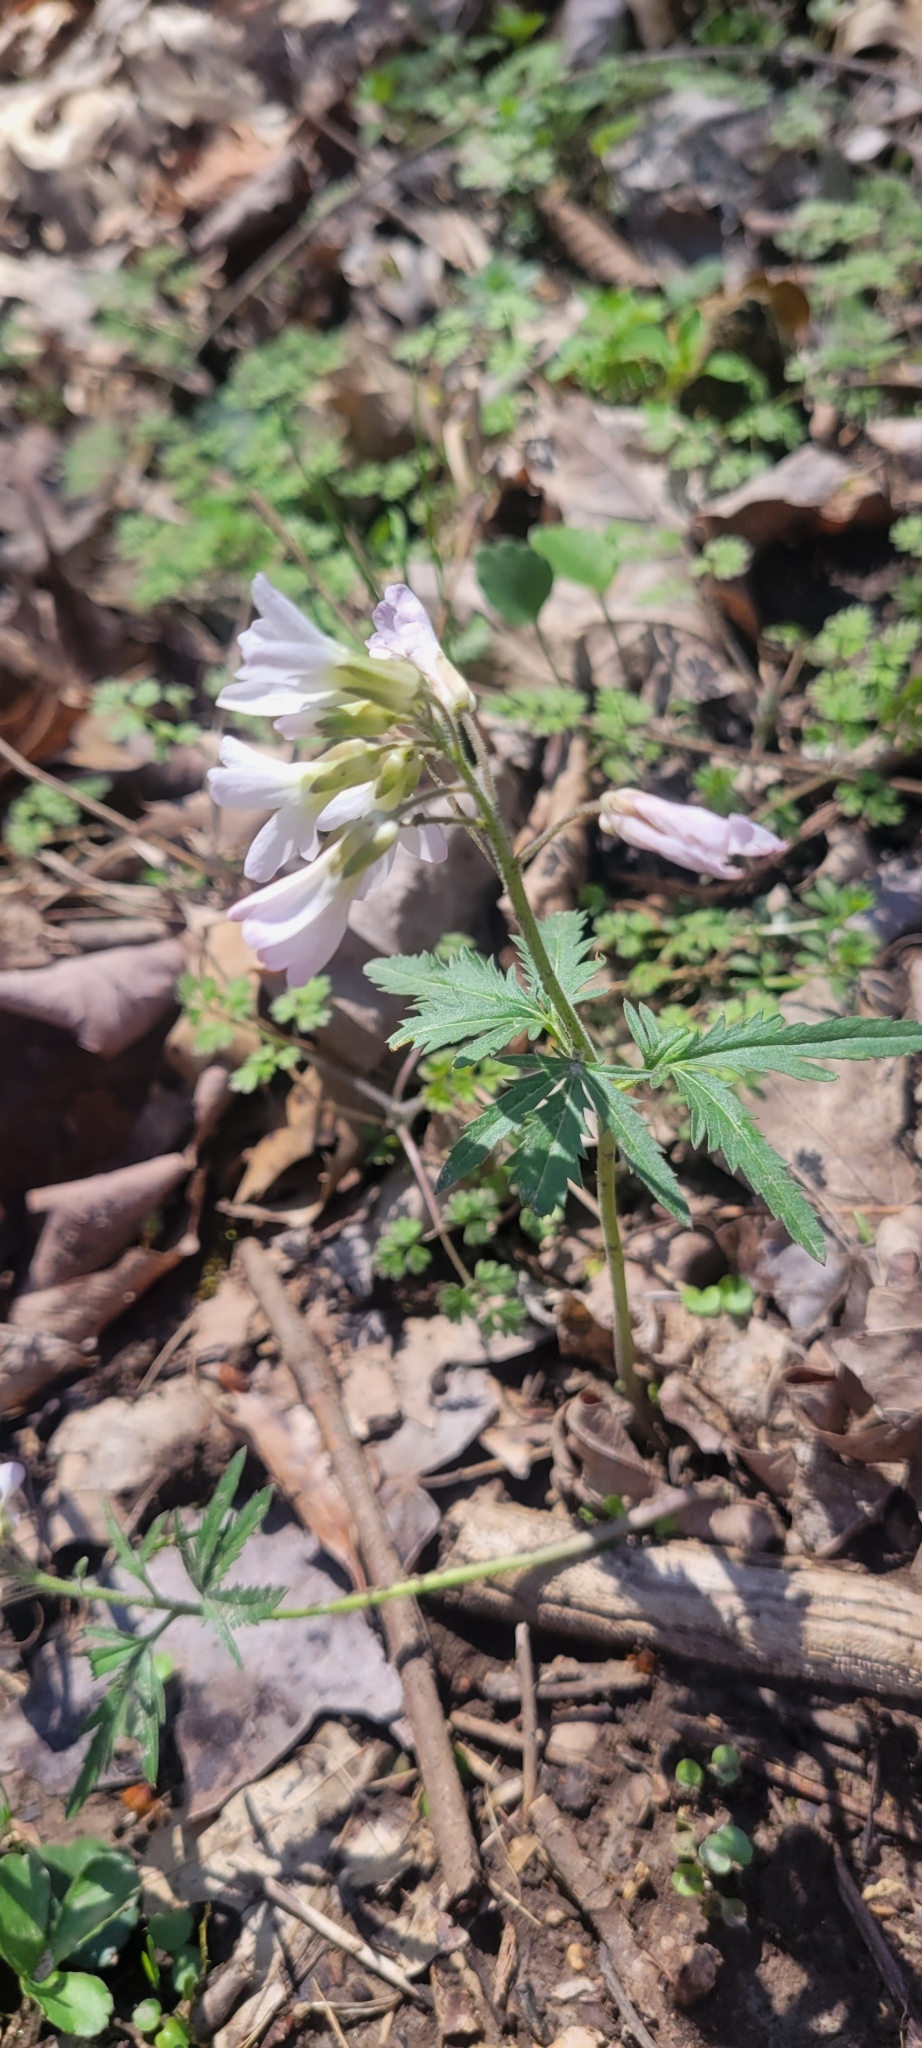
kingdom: Plantae
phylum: Tracheophyta
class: Magnoliopsida
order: Brassicales
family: Brassicaceae
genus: Cardamine
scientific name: Cardamine concatenata
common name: Cut-leaf toothcup
